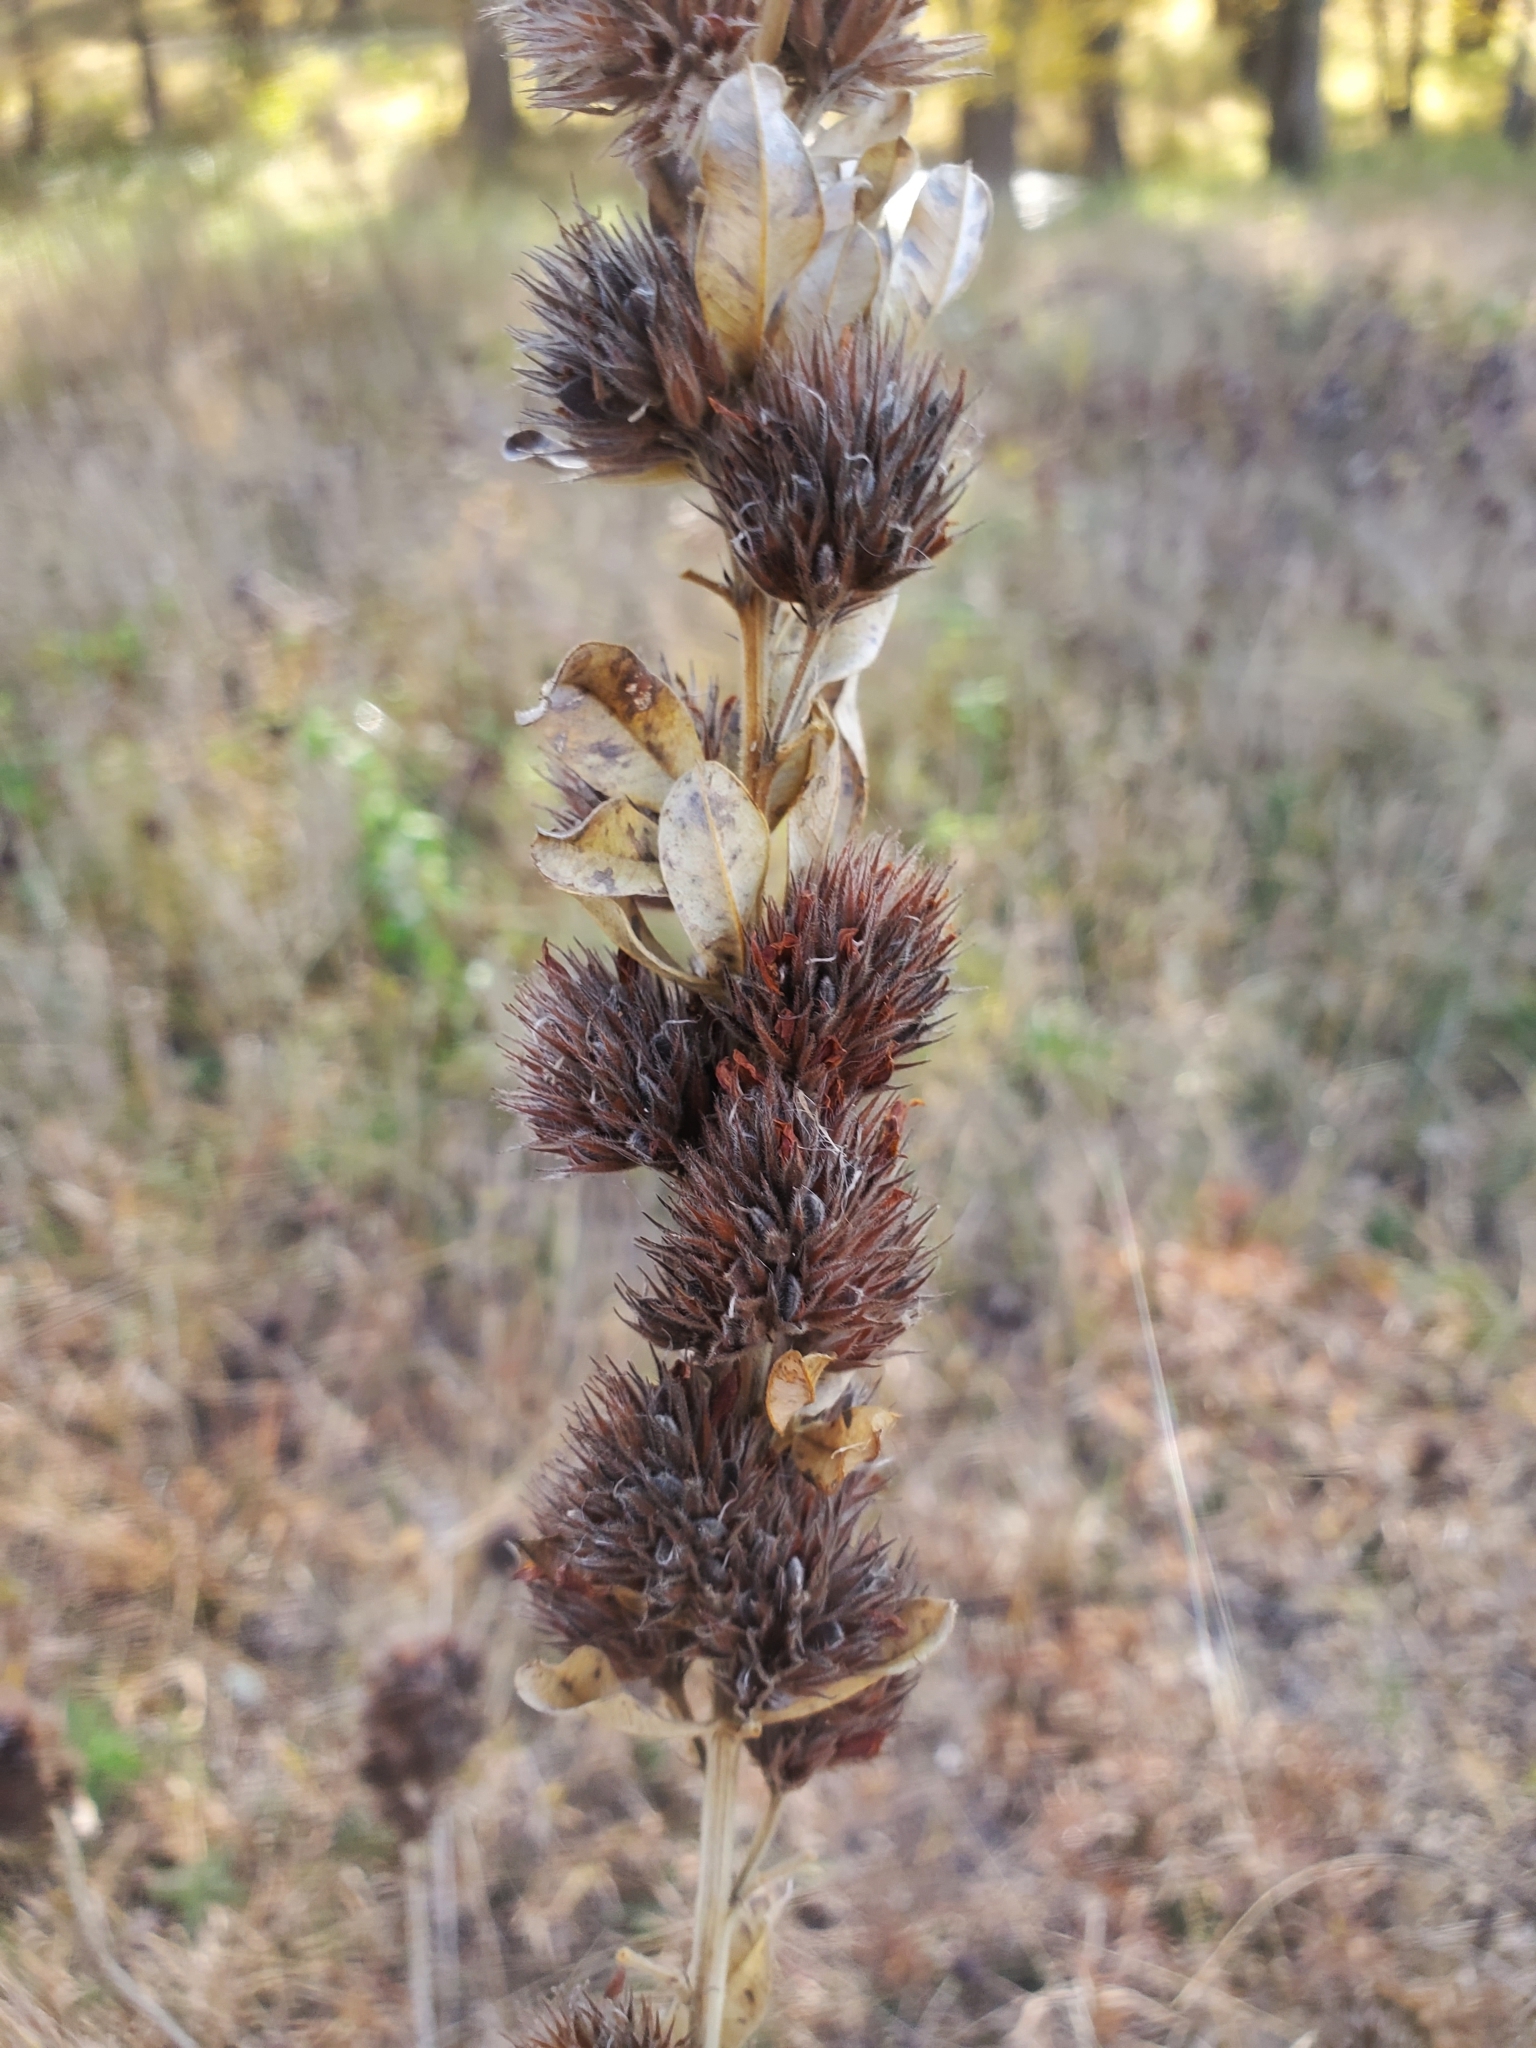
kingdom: Plantae
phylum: Tracheophyta
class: Magnoliopsida
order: Fabales
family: Fabaceae
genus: Lespedeza
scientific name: Lespedeza capitata
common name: Dusty clover
